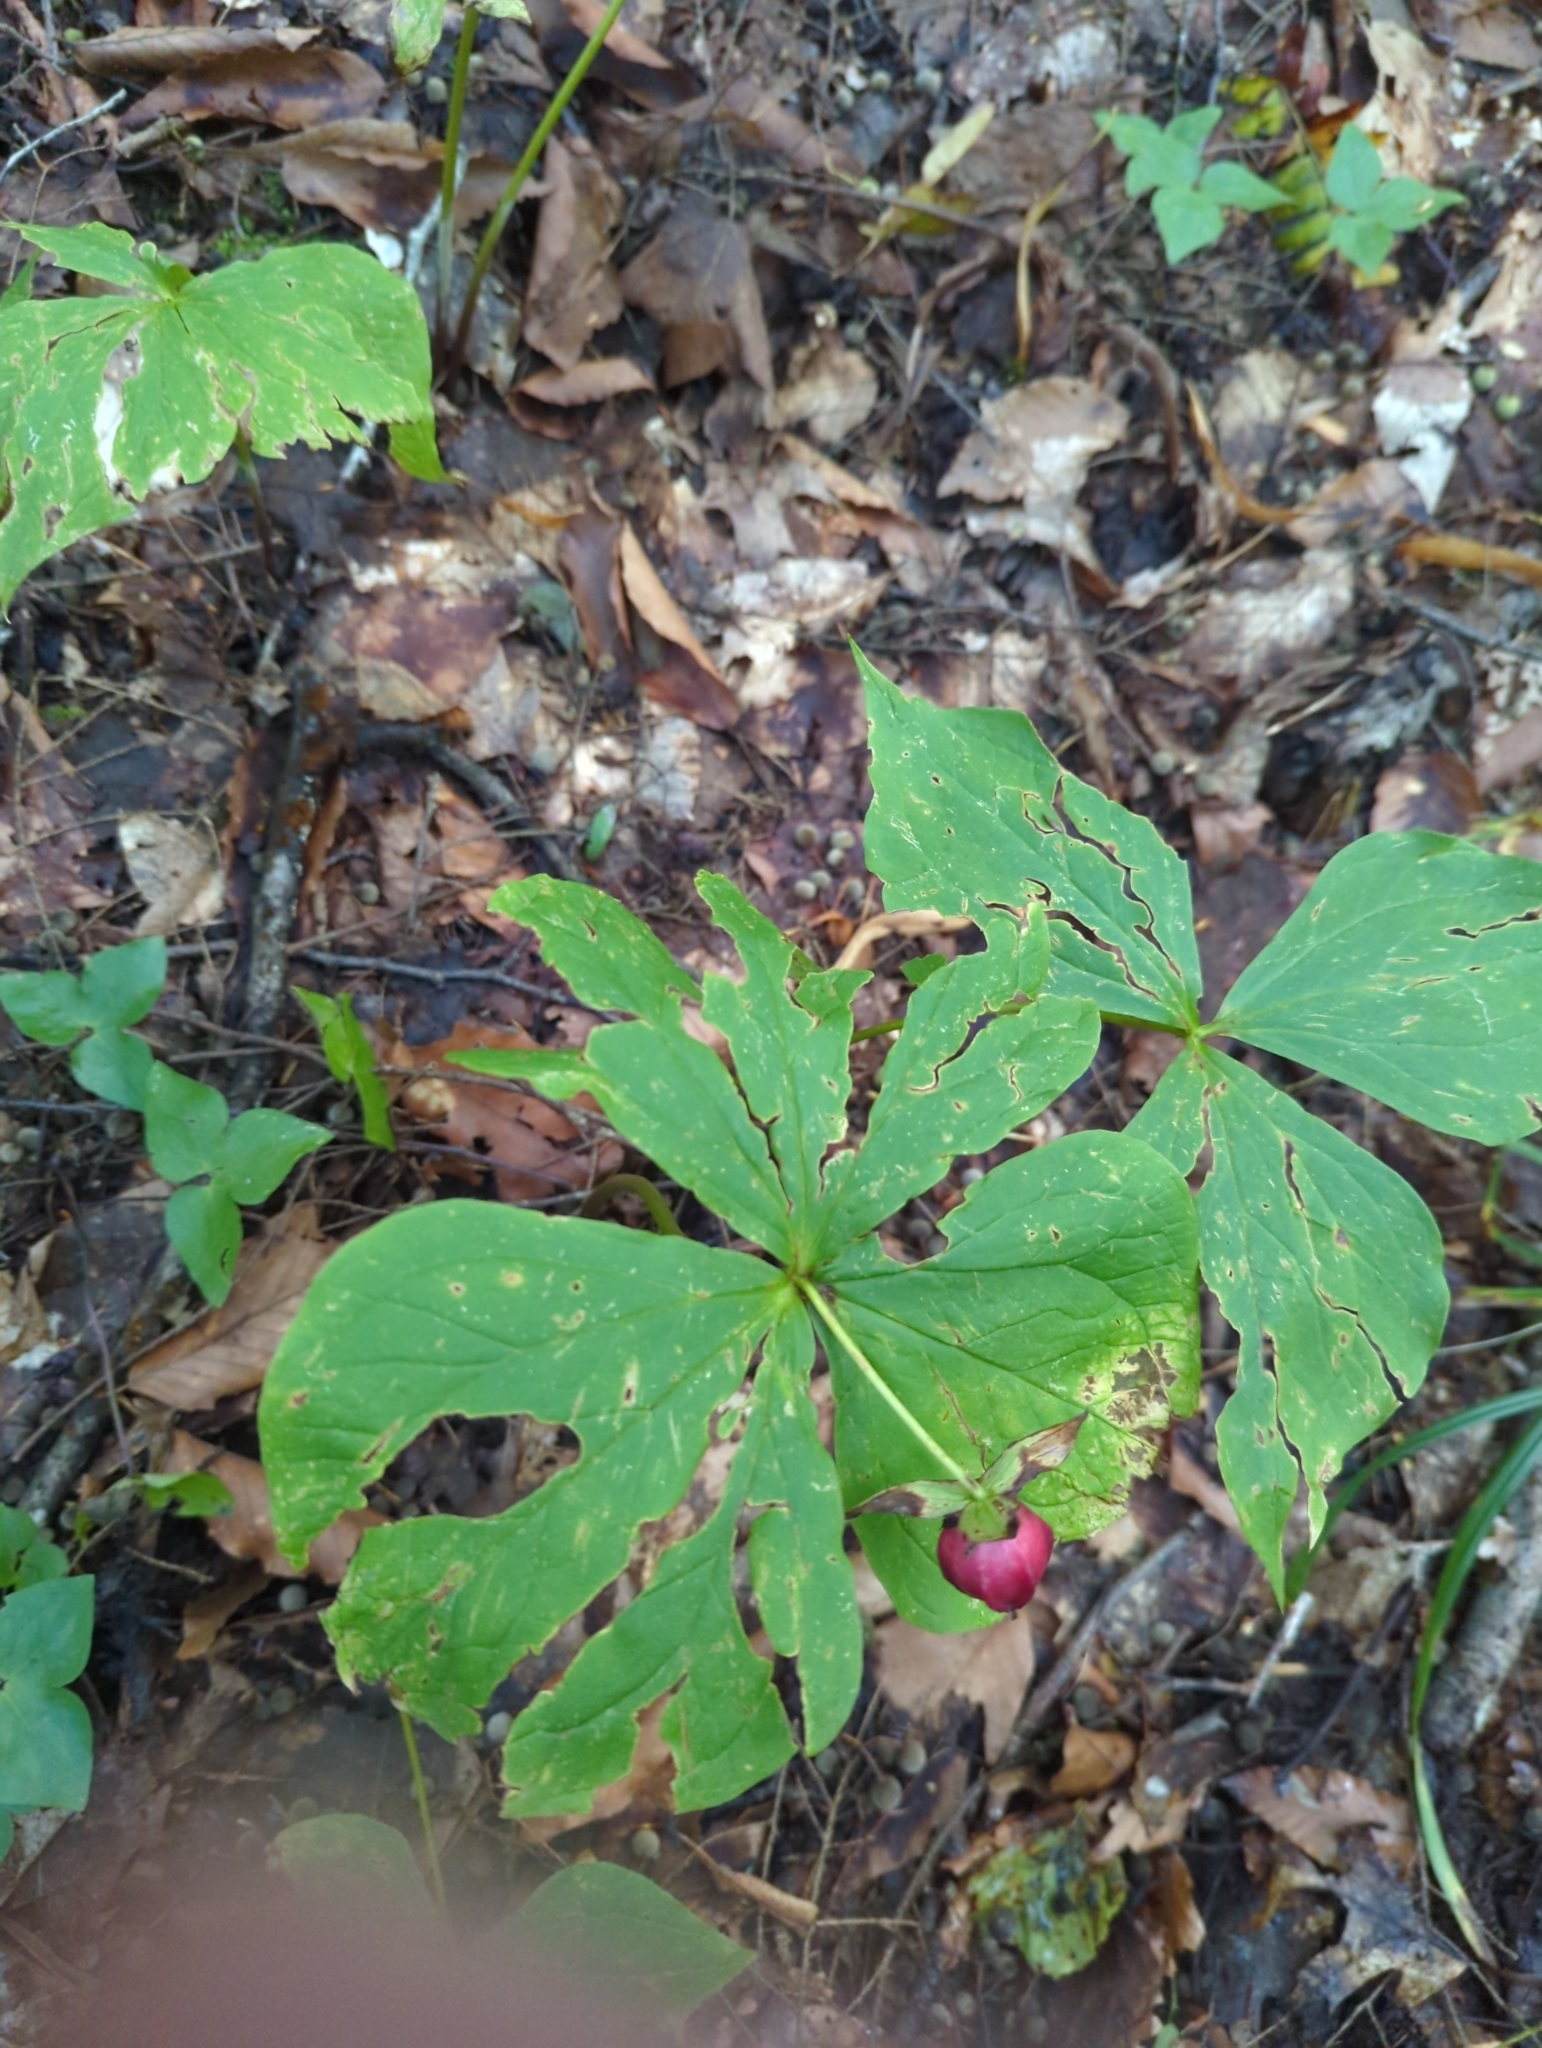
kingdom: Plantae
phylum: Tracheophyta
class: Liliopsida
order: Liliales
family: Melanthiaceae
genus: Trillium
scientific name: Trillium erectum
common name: Purple trillium
